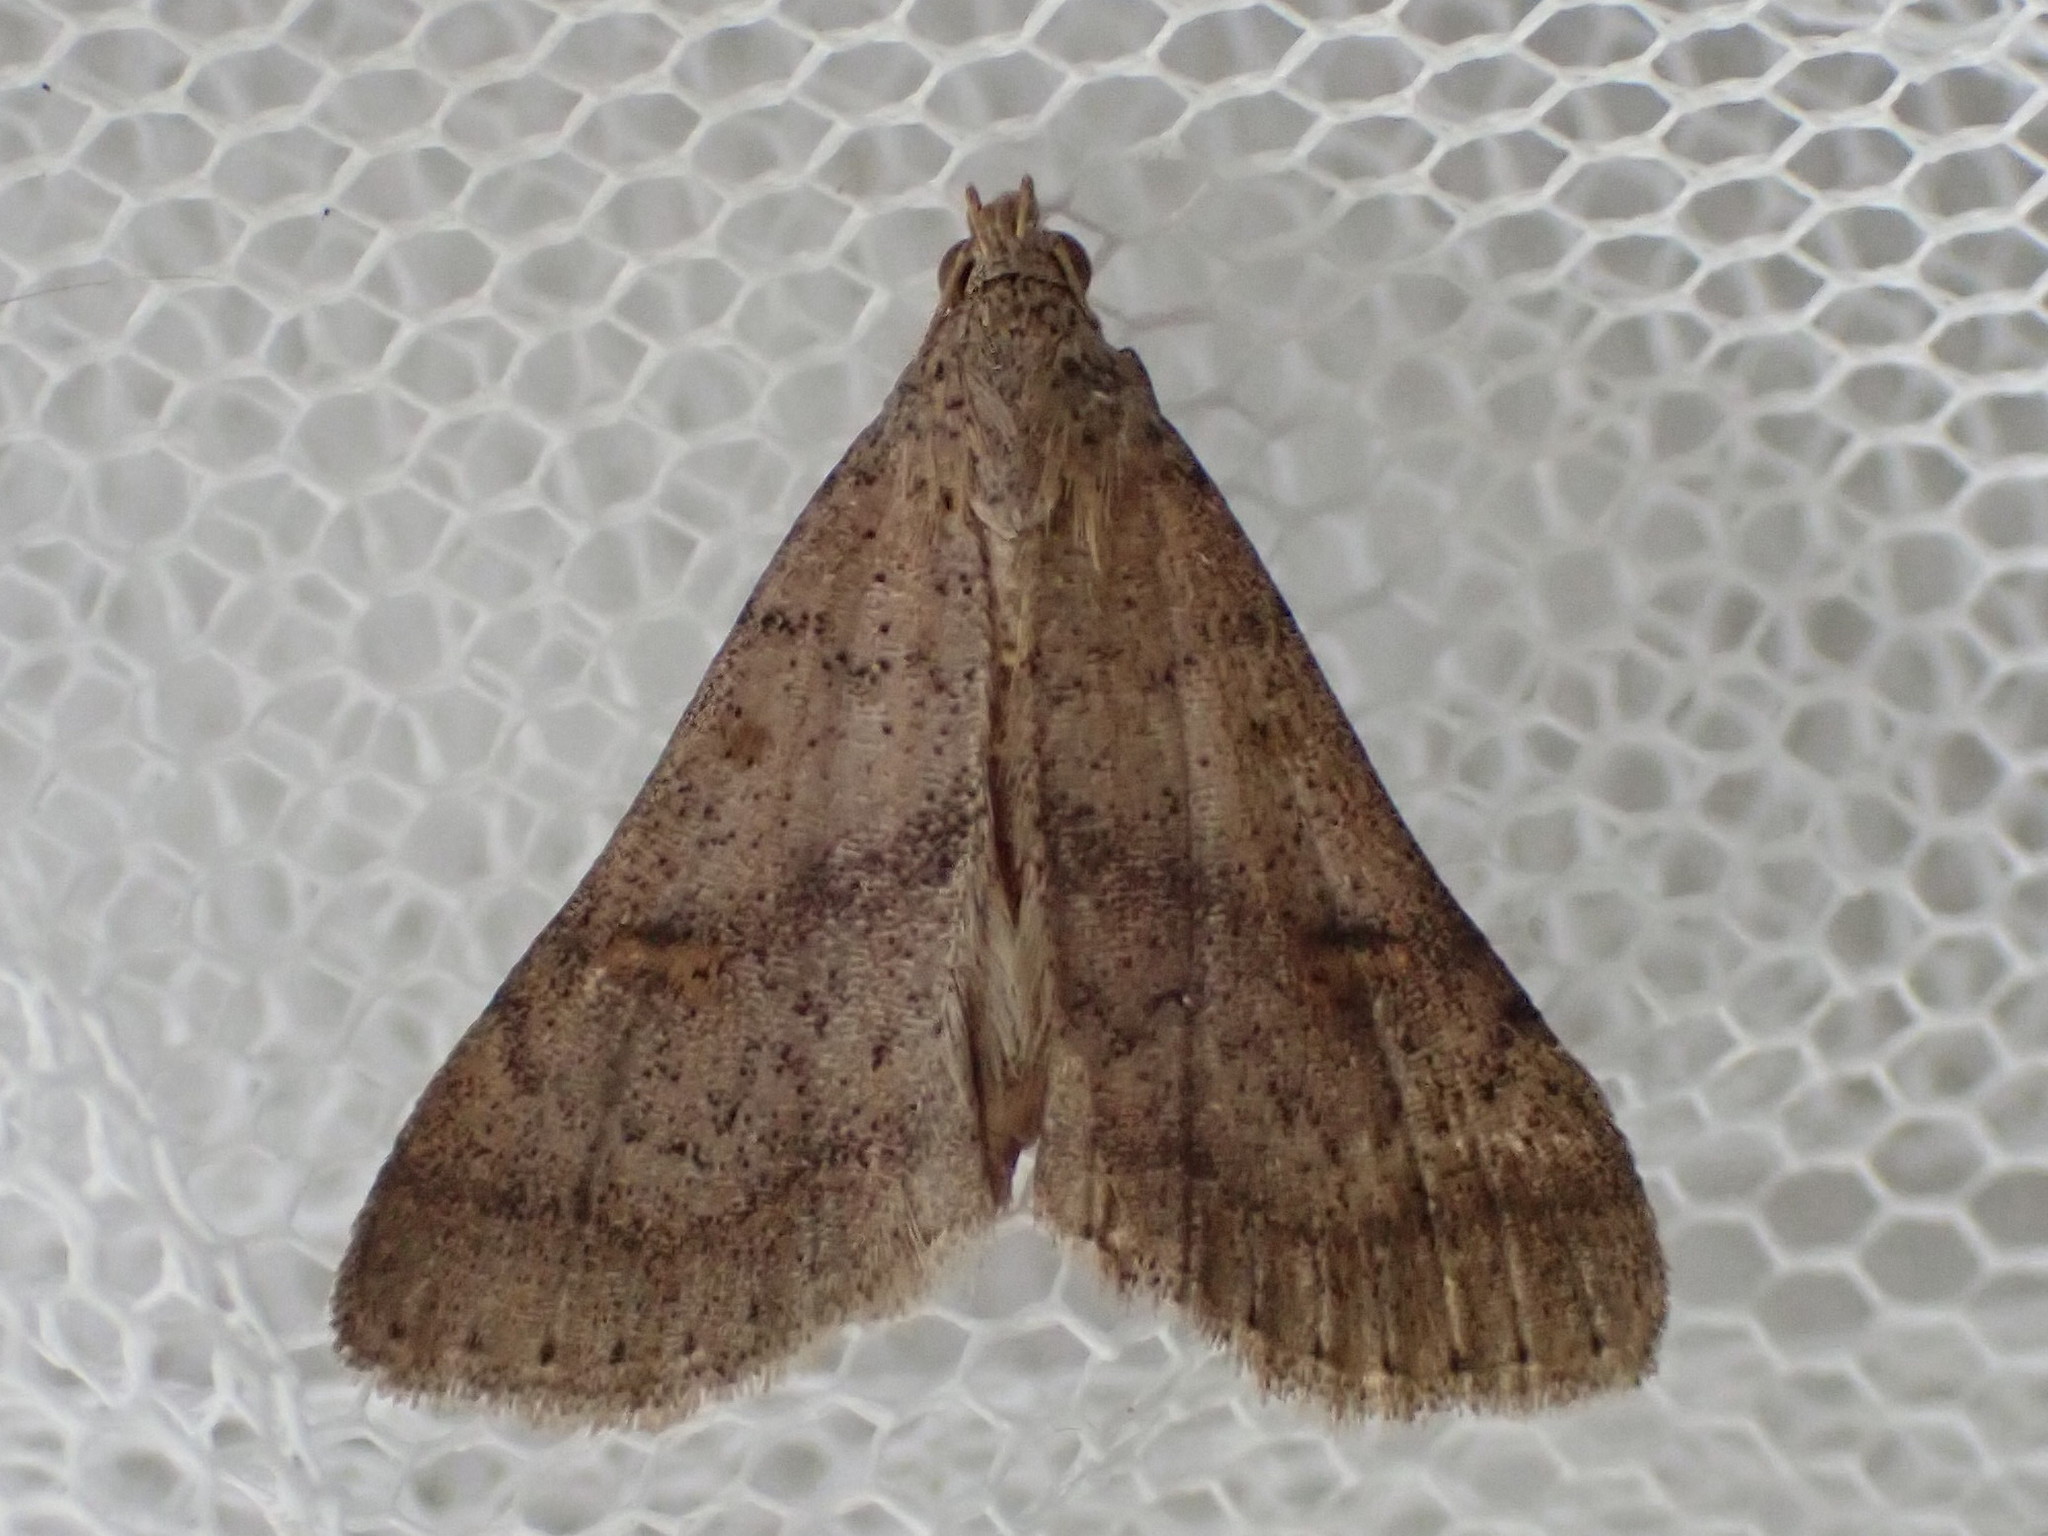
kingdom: Animalia
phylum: Arthropoda
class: Insecta
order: Lepidoptera
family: Erebidae
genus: Bleptina
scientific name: Bleptina caradrinalis
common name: Bent-winged owlet
